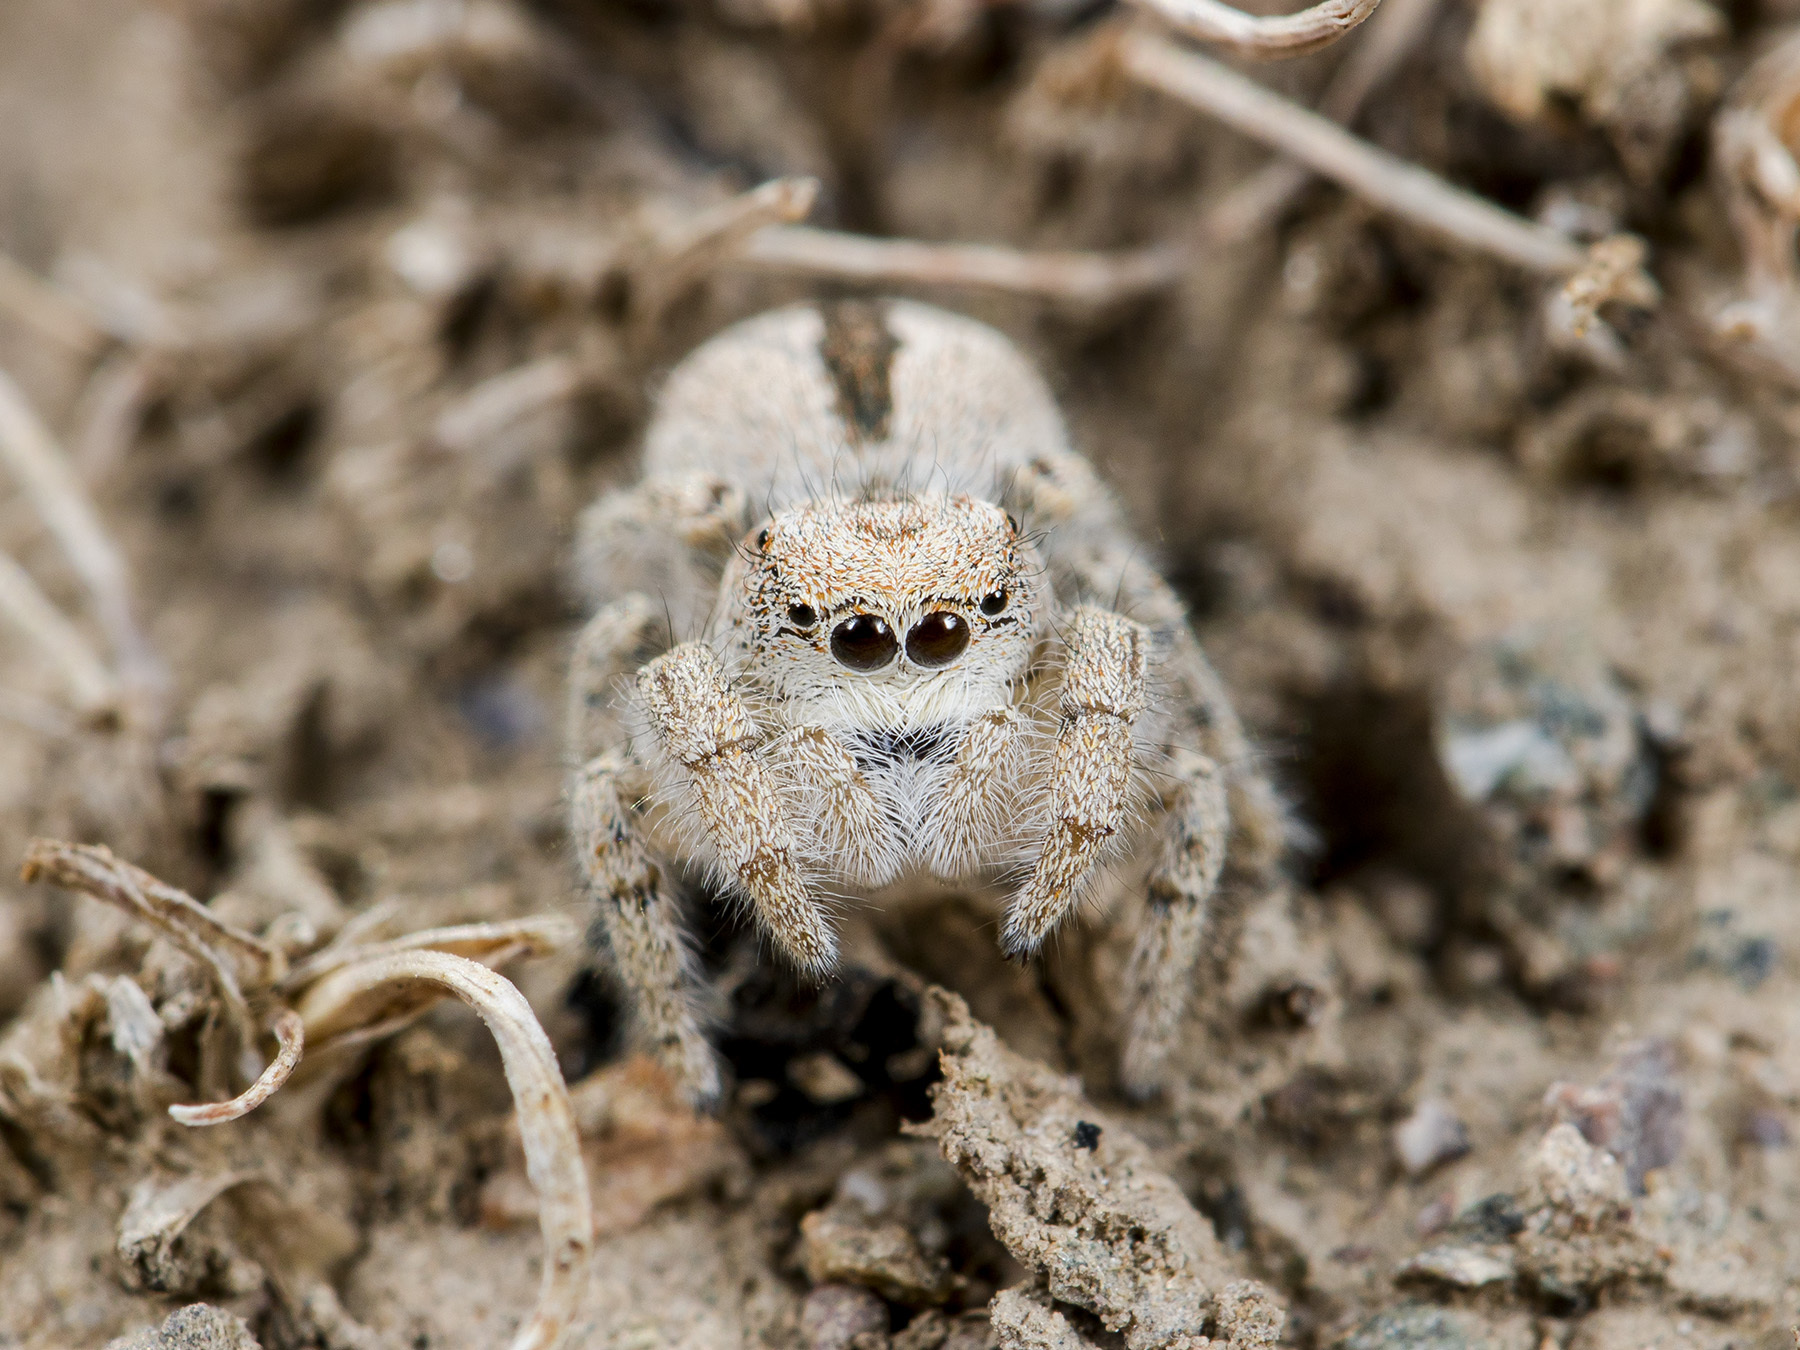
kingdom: Animalia
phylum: Arthropoda
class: Arachnida
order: Araneae
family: Salticidae
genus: Pseudomogrus
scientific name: Pseudomogrus zhilgaensis
